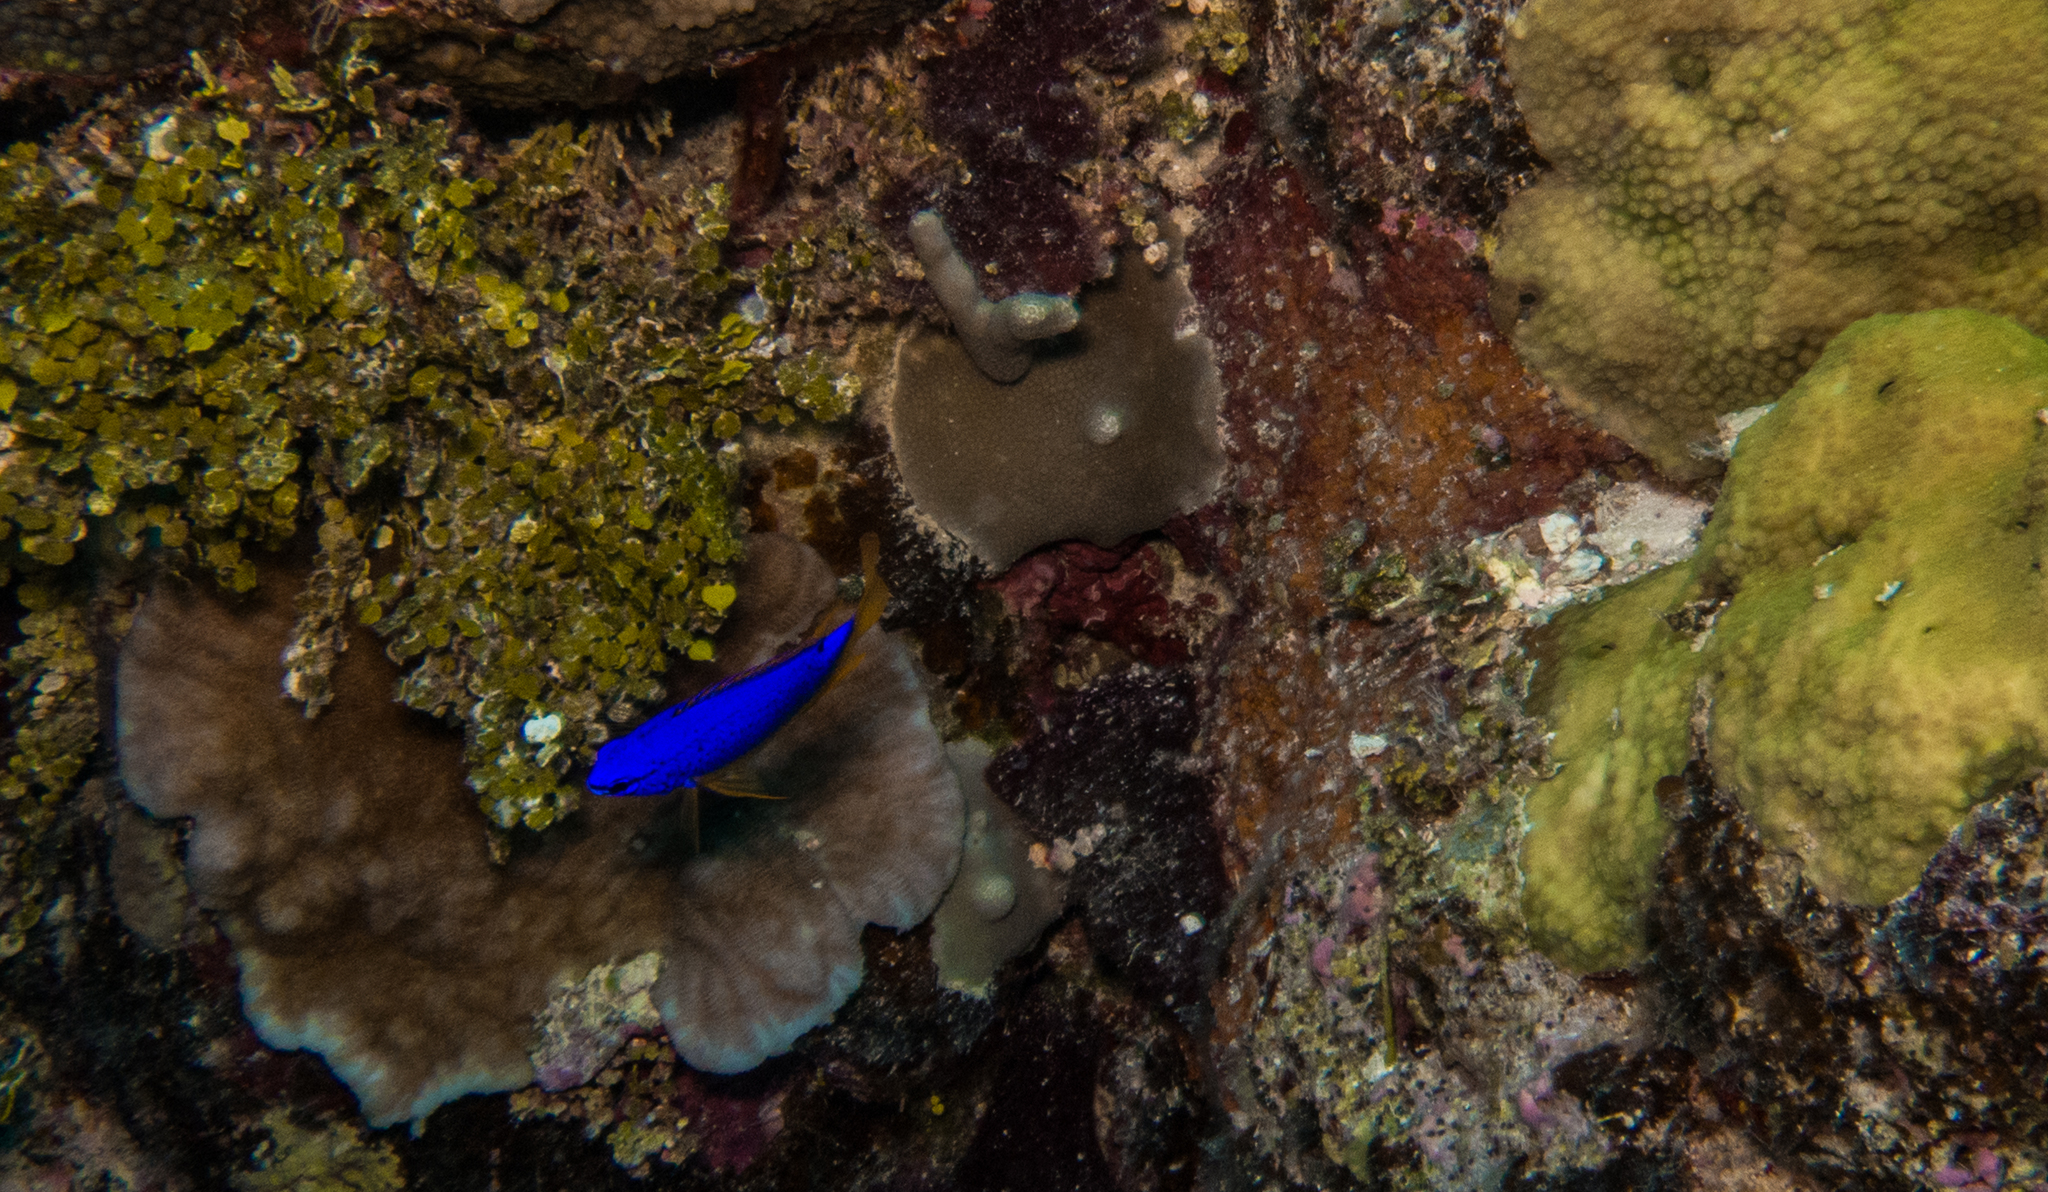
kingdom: Animalia
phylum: Chordata
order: Perciformes
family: Pomacentridae
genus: Chrysiptera
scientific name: Chrysiptera taupou
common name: Fiji damsel
